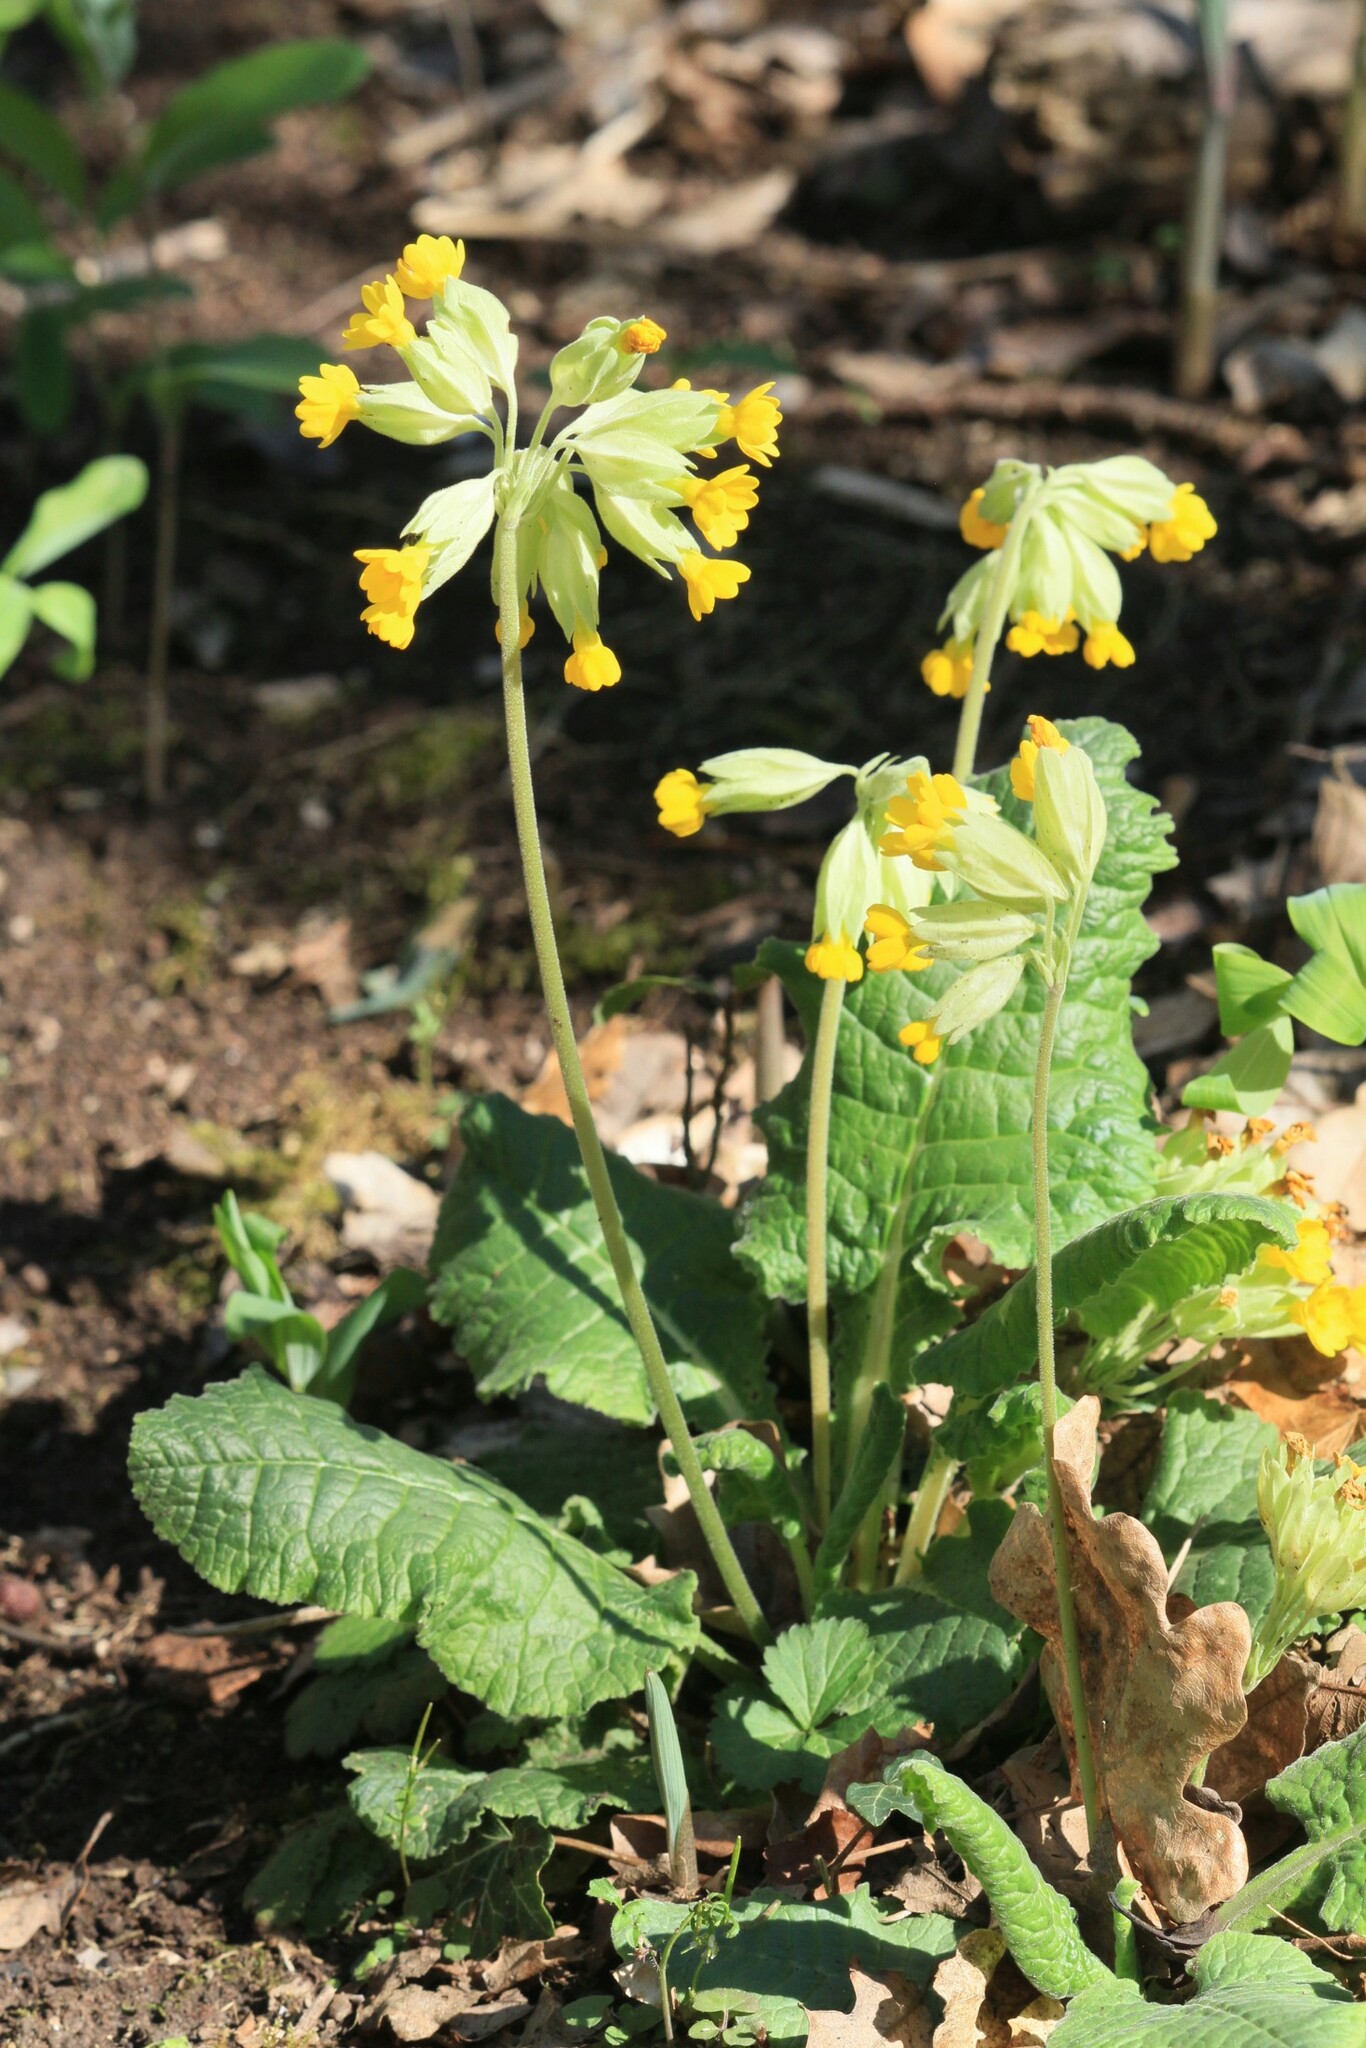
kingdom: Plantae
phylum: Tracheophyta
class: Magnoliopsida
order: Ericales
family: Primulaceae
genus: Primula
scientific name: Primula veris
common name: Cowslip
